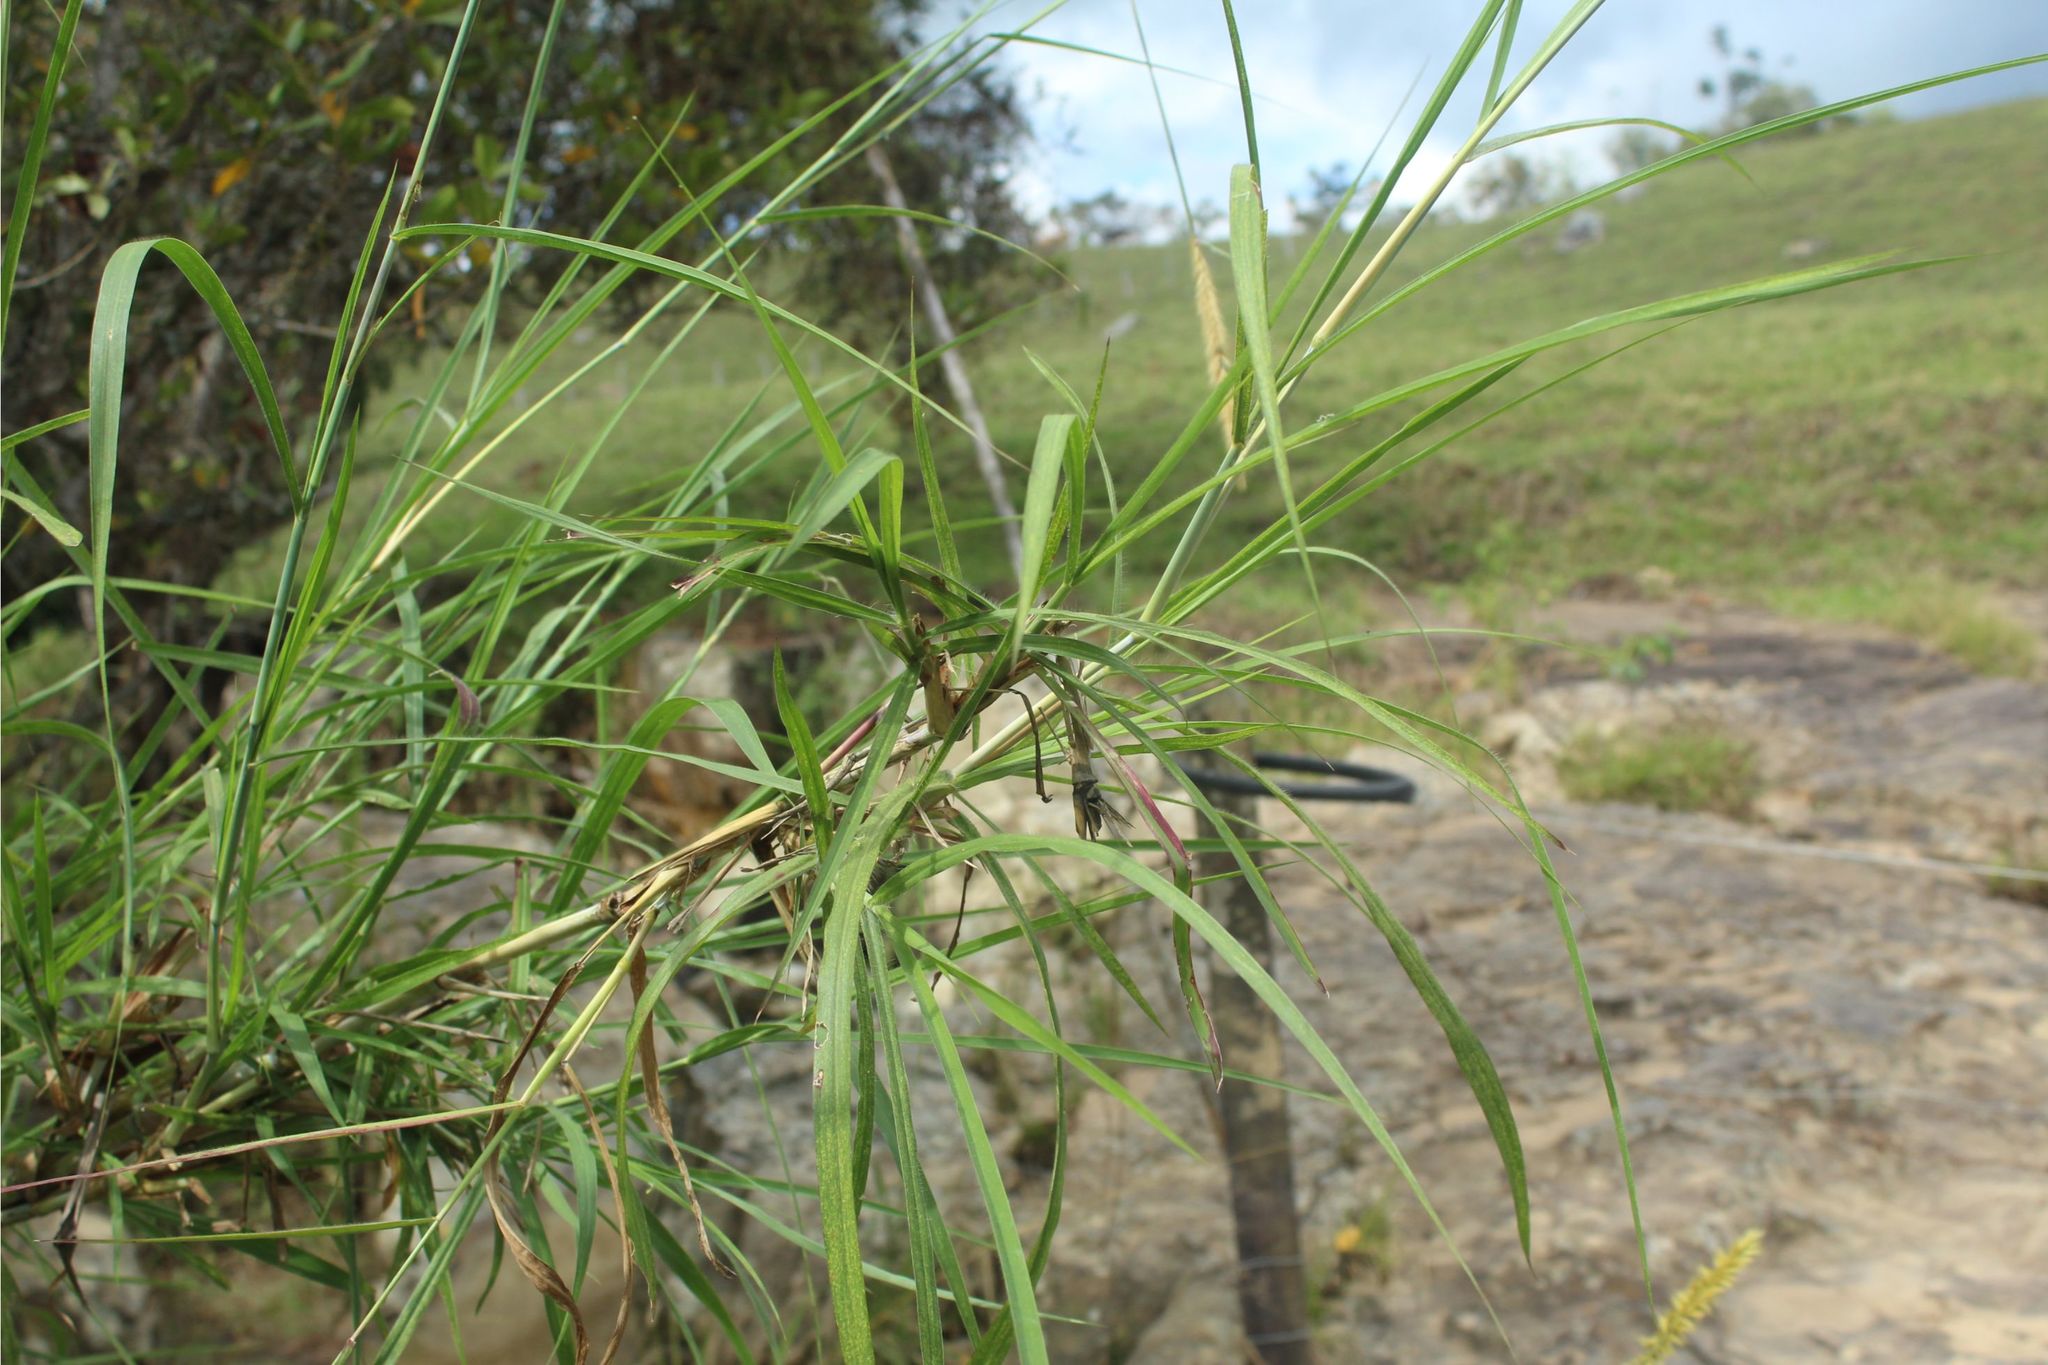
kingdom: Plantae
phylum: Tracheophyta
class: Liliopsida
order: Poales
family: Poaceae
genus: Cenchrus
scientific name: Cenchrus longisetus
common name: Feathertop
